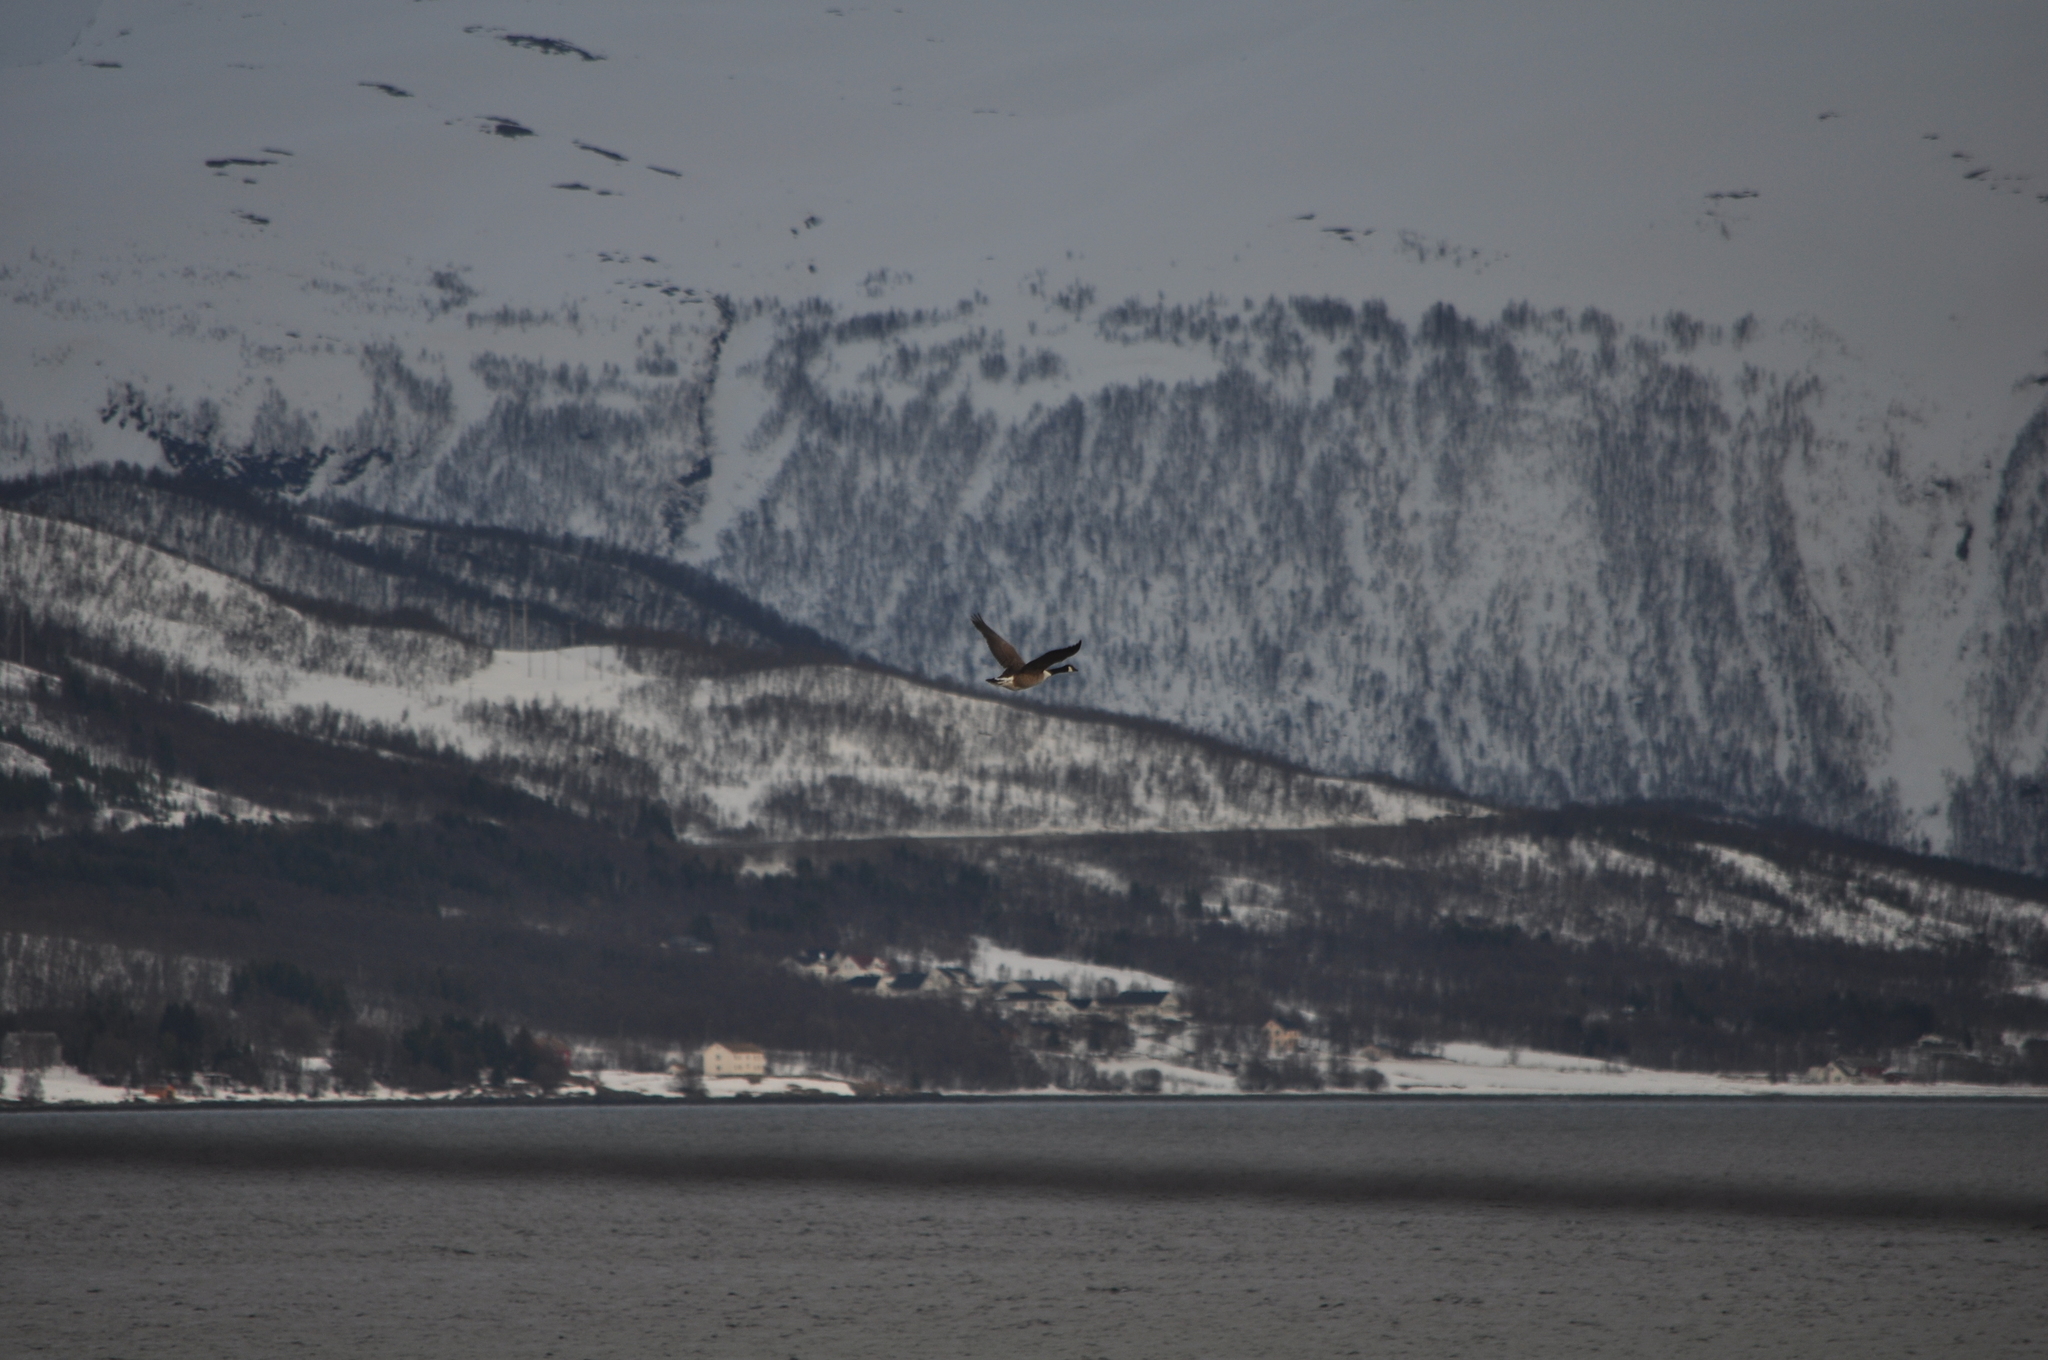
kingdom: Animalia
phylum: Chordata
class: Aves
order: Anseriformes
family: Anatidae
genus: Branta
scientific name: Branta canadensis
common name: Canada goose
